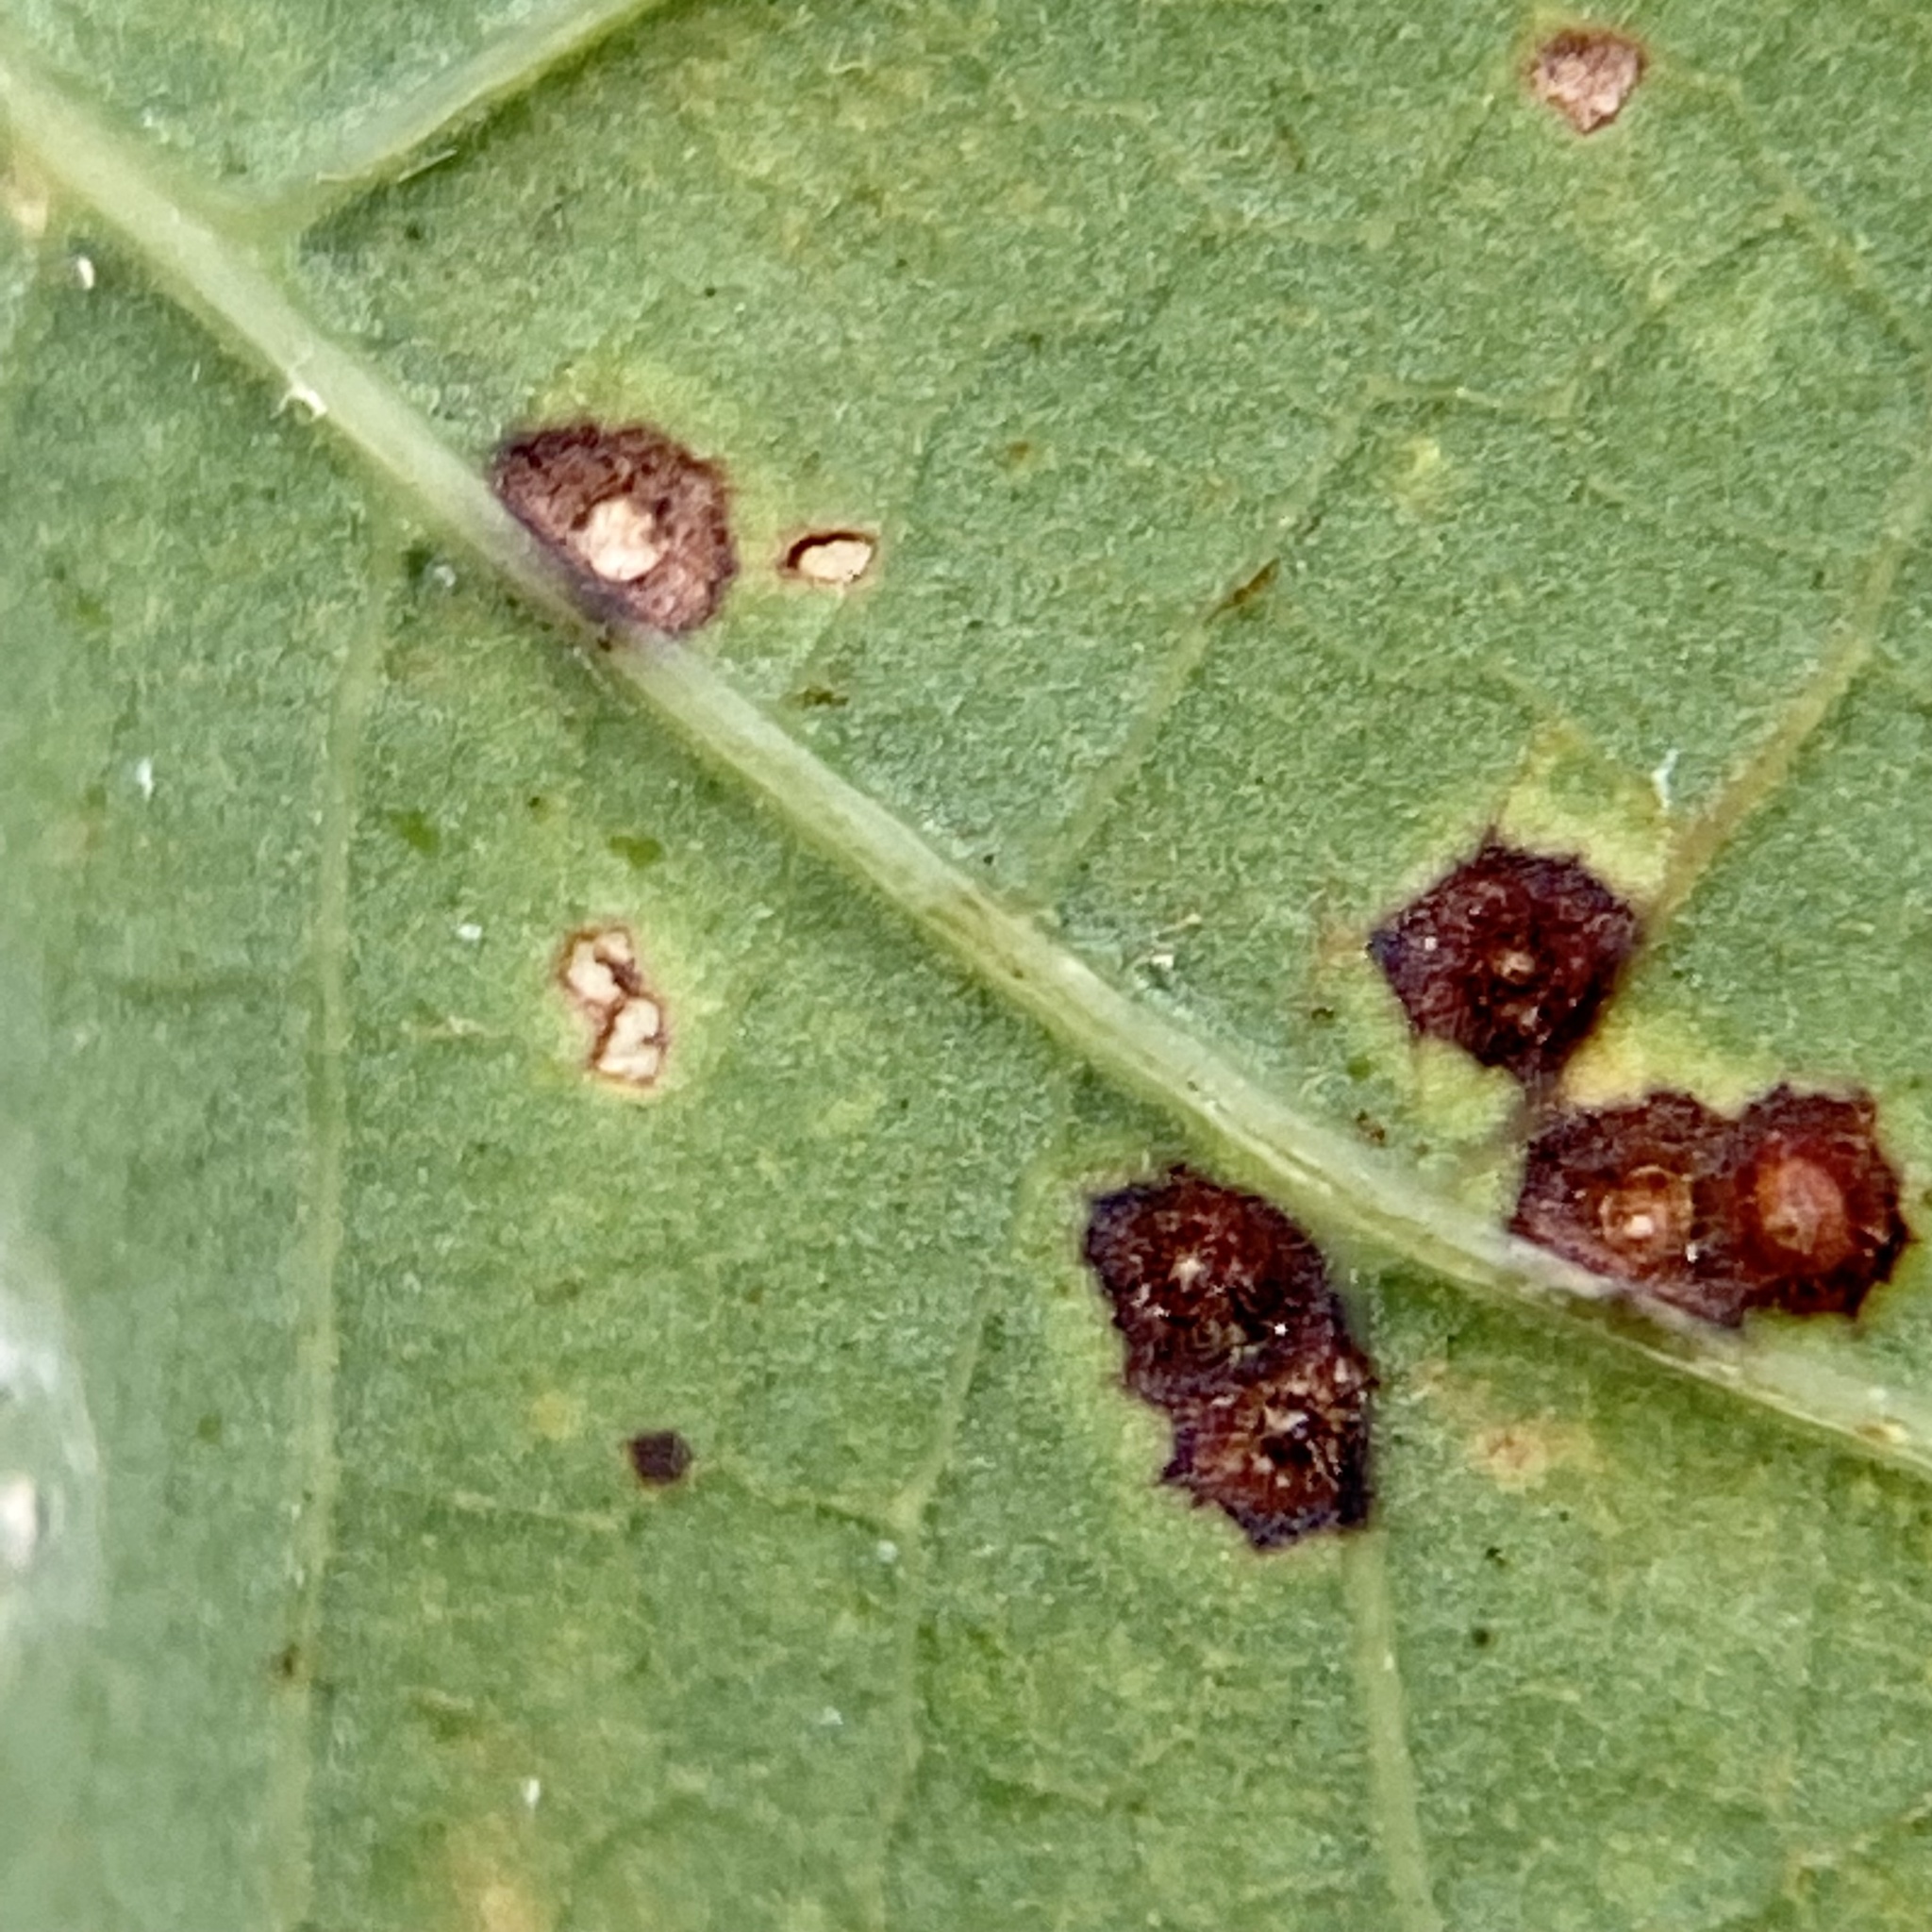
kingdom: Animalia
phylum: Arthropoda
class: Insecta
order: Hymenoptera
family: Cynipidae
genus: Neuroterus
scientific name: Neuroterus
